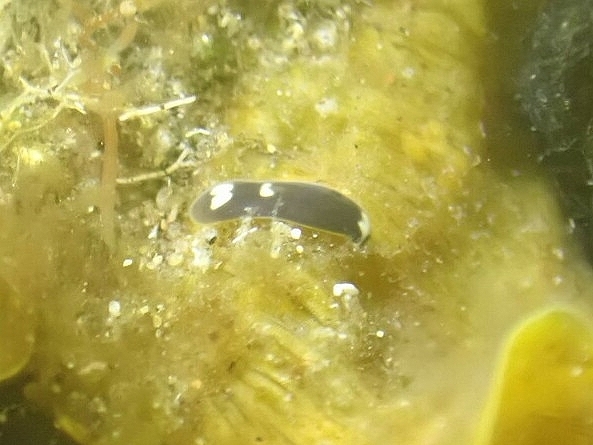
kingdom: Animalia
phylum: Xenacoelomorpha
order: Acoela
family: Hofsteniidae
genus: Hofstenia
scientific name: Hofstenia miamia
